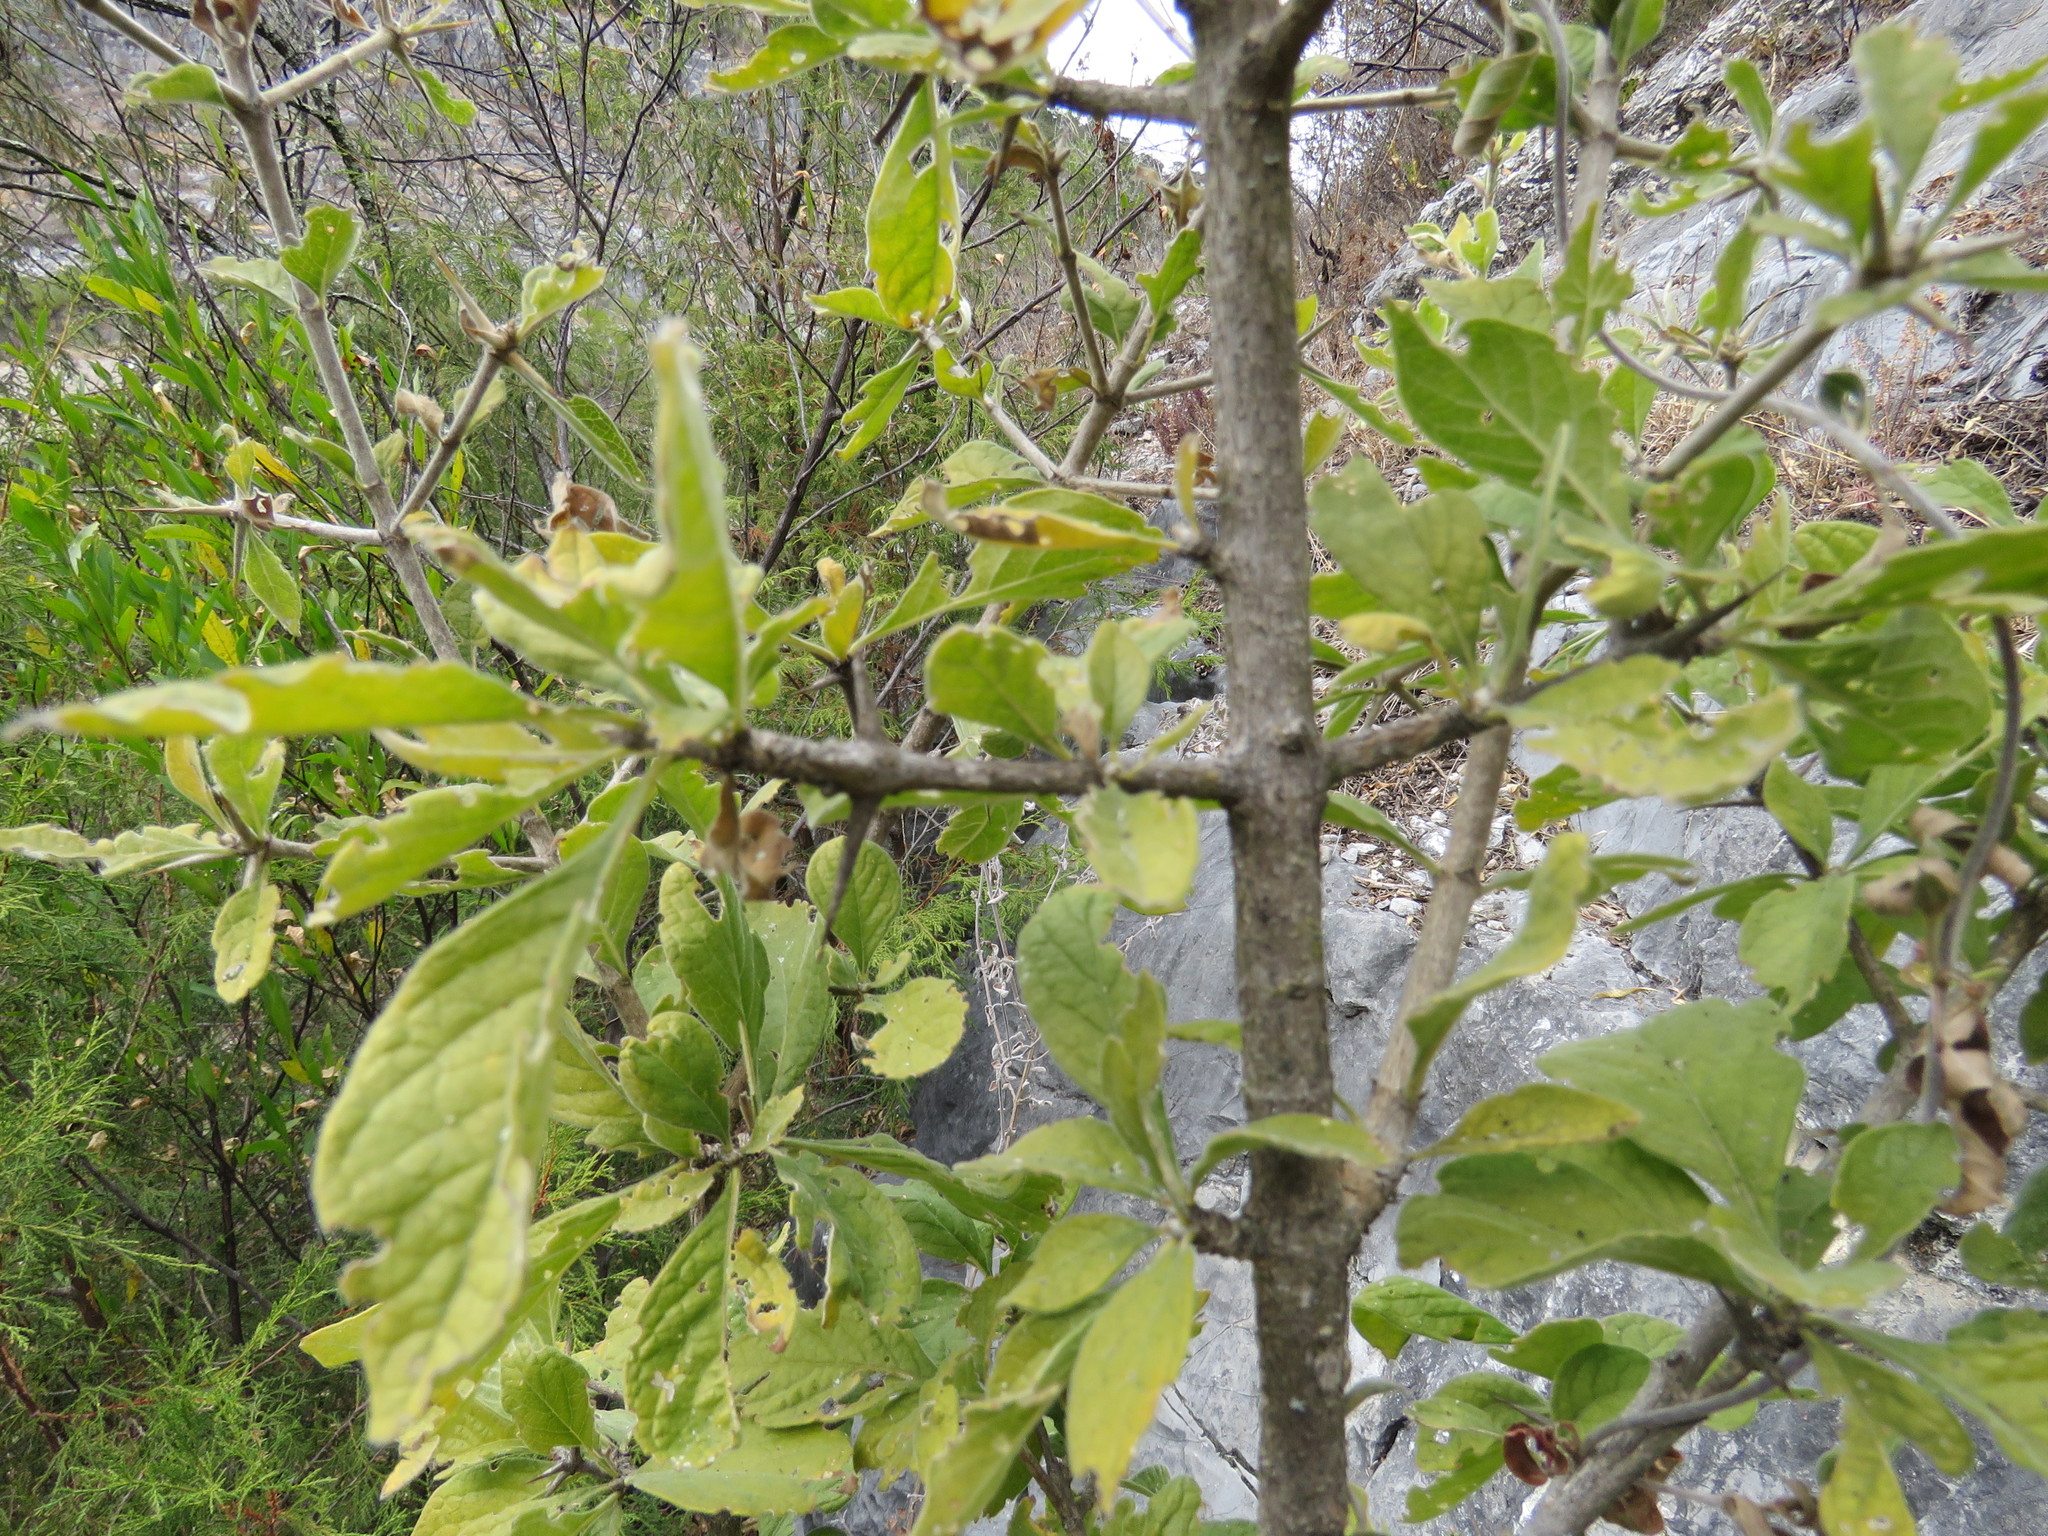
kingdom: Plantae
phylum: Tracheophyta
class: Magnoliopsida
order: Gentianales
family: Rubiaceae
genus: Randia
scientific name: Randia echinocarpa
